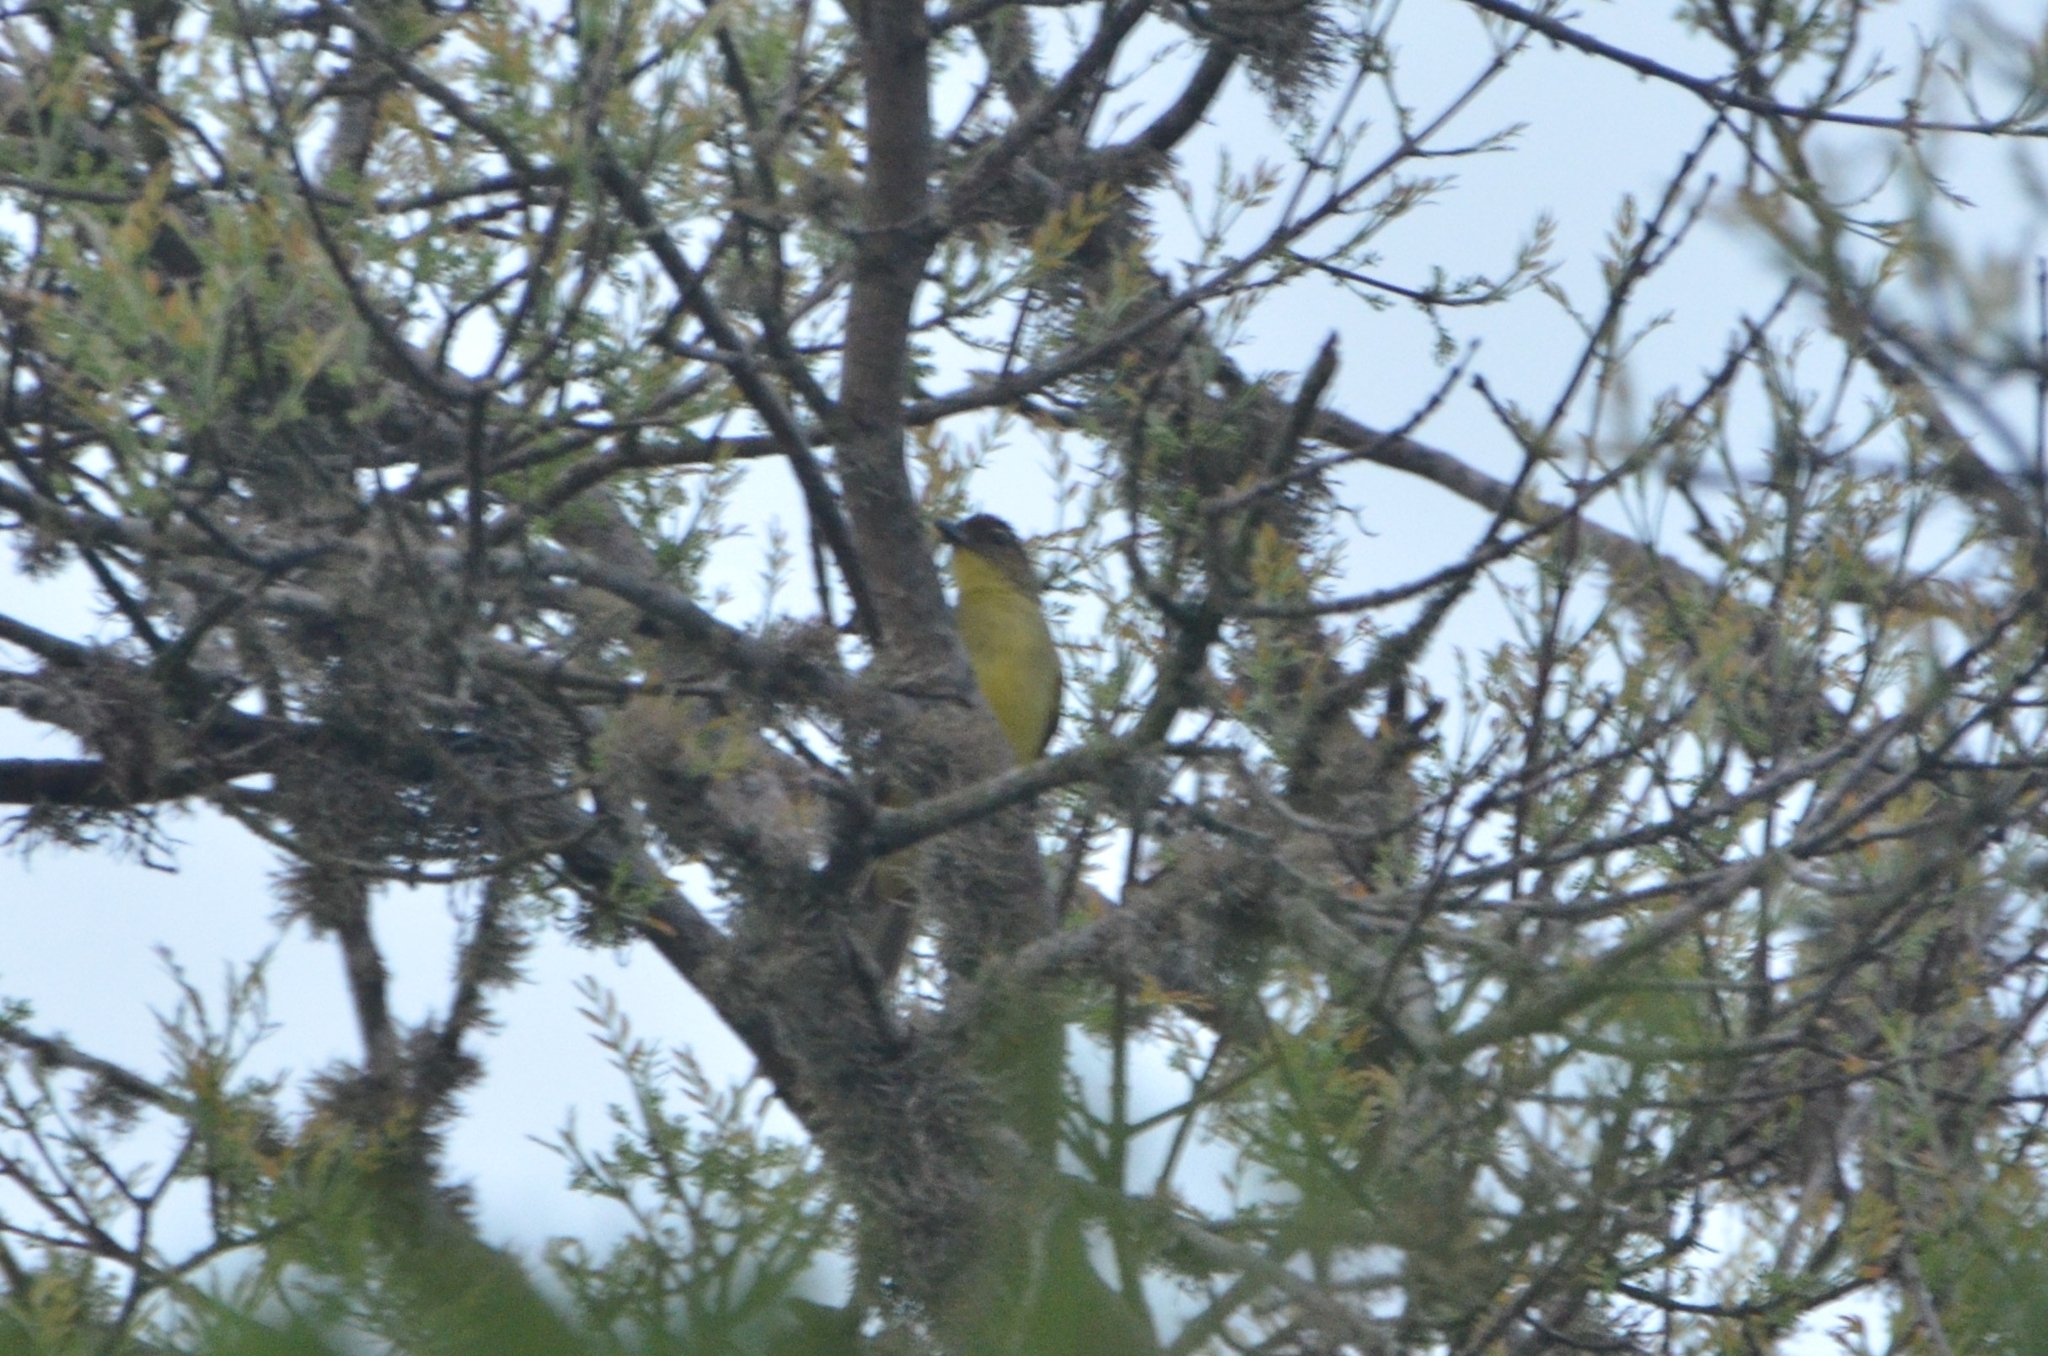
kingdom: Animalia
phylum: Chordata
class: Aves
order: Passeriformes
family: Pycnonotidae
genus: Chlorocichla
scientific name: Chlorocichla flaviventris
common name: Yellow-bellied greenbul
